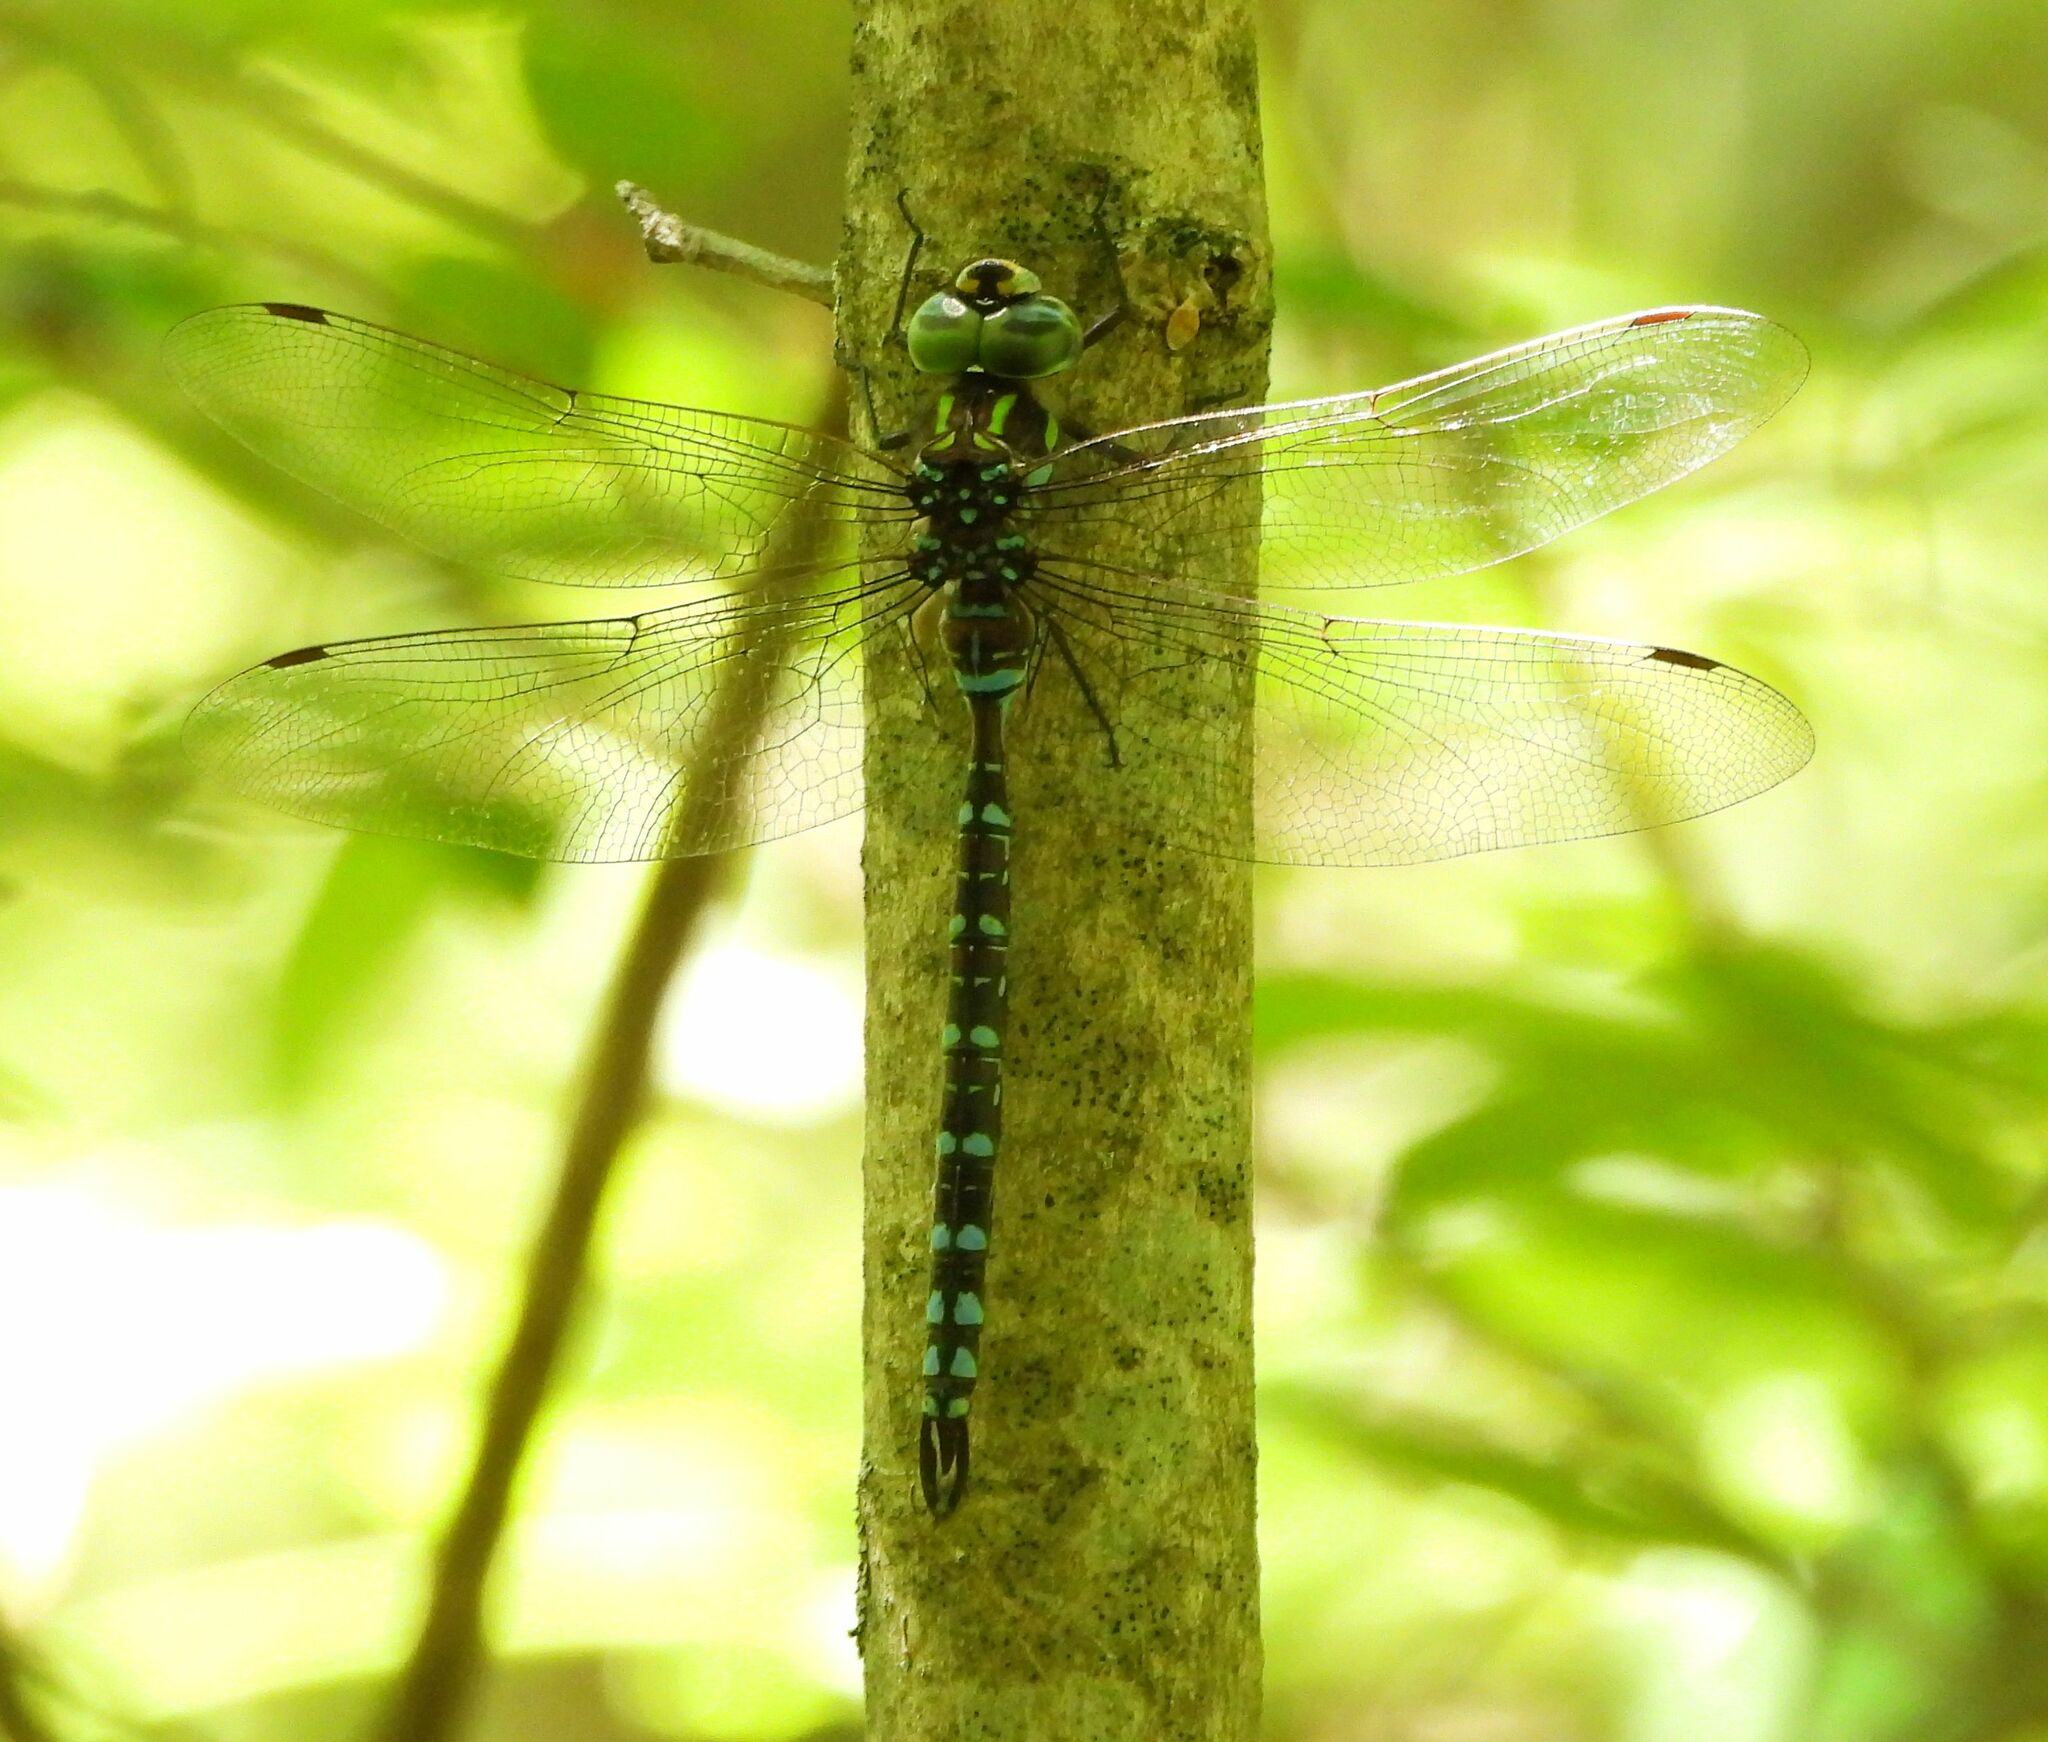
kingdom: Animalia
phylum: Arthropoda
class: Insecta
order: Odonata
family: Aeshnidae
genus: Aeshna
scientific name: Aeshna canadensis
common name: Canada darner
